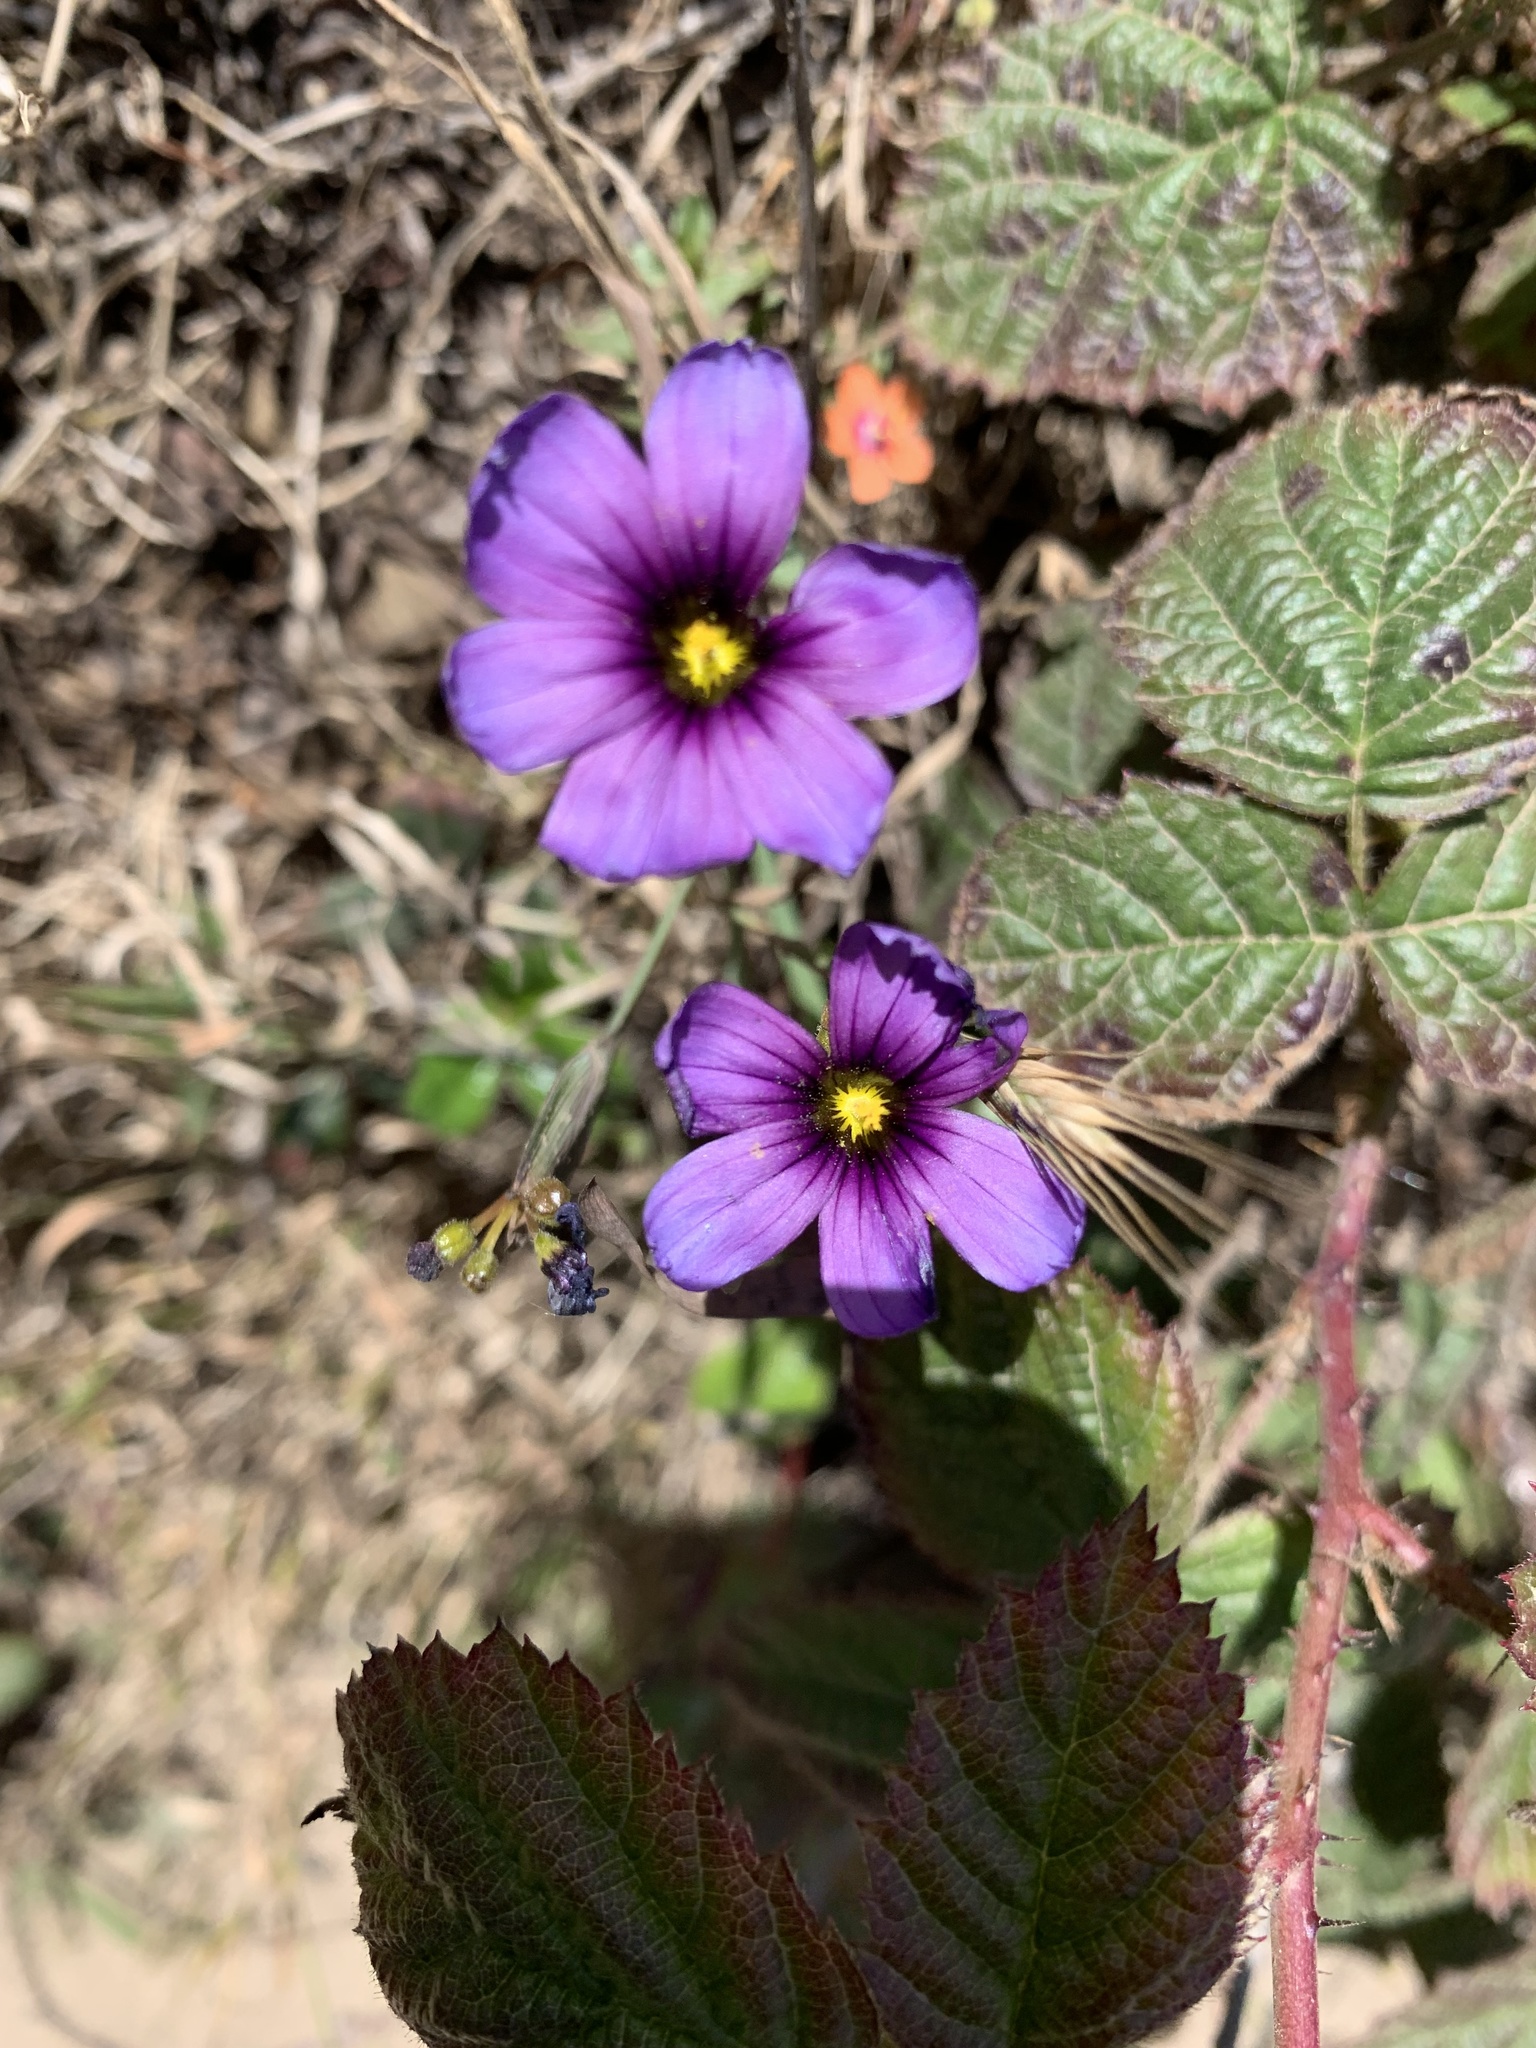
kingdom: Plantae
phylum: Tracheophyta
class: Liliopsida
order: Asparagales
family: Iridaceae
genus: Sisyrinchium
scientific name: Sisyrinchium bellum
